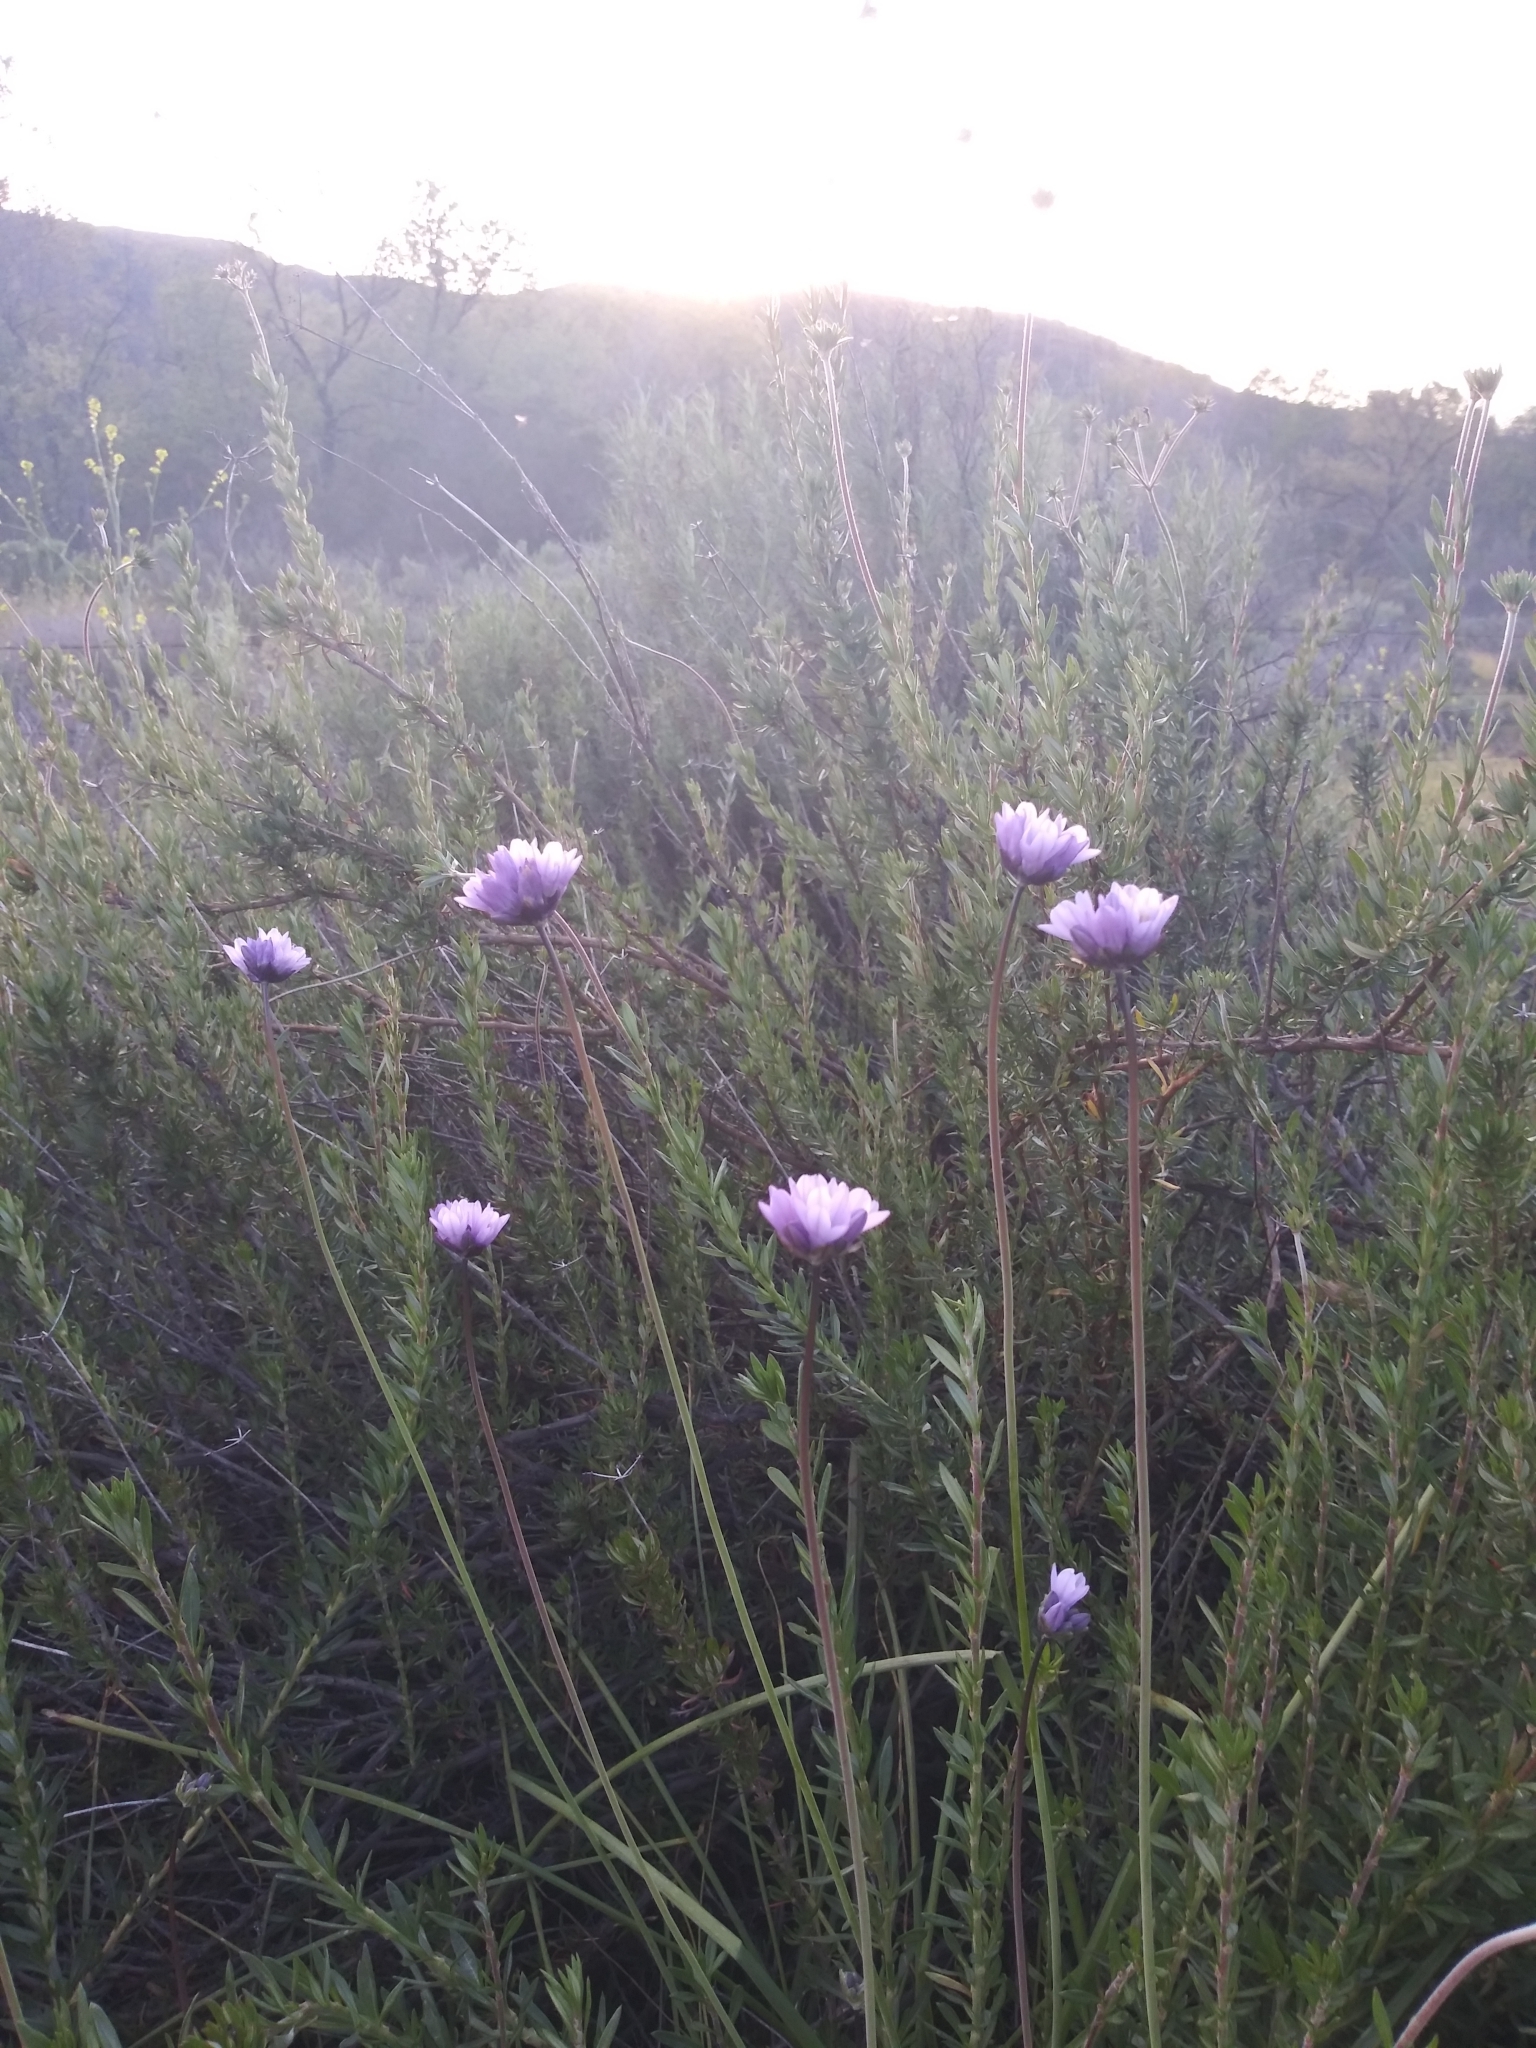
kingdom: Plantae
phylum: Tracheophyta
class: Liliopsida
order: Asparagales
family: Asparagaceae
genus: Dipterostemon
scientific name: Dipterostemon capitatus
